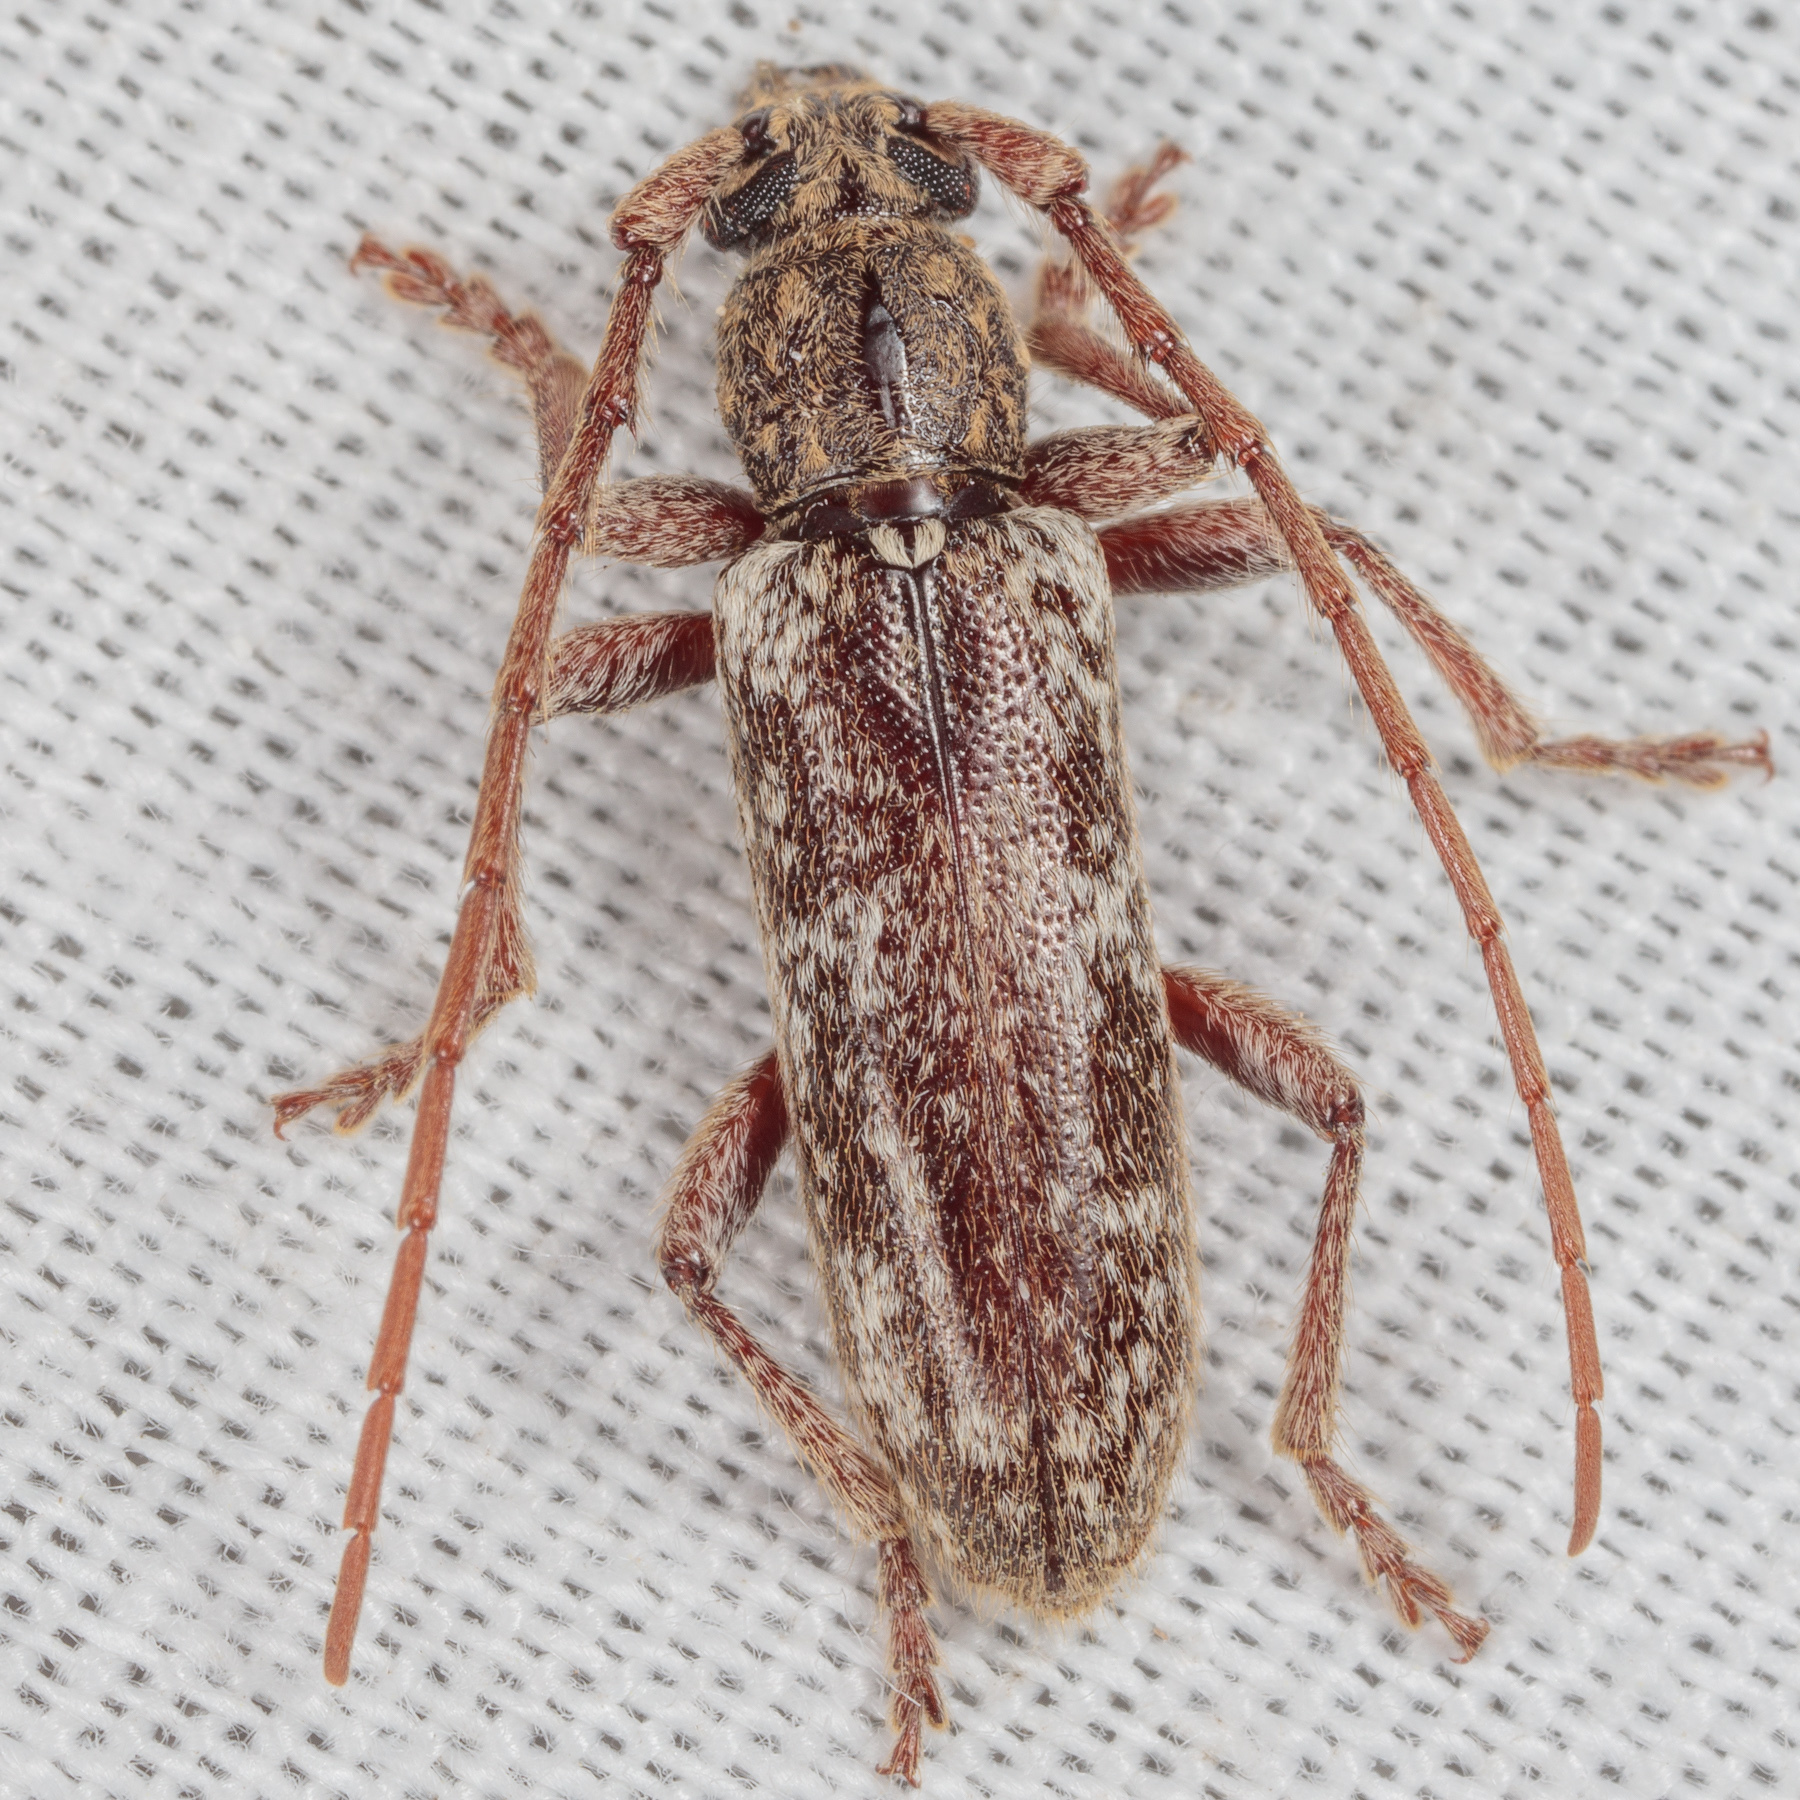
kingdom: Animalia
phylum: Arthropoda
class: Insecta
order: Coleoptera
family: Cerambycidae
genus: Anelaphus
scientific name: Anelaphus debilis
